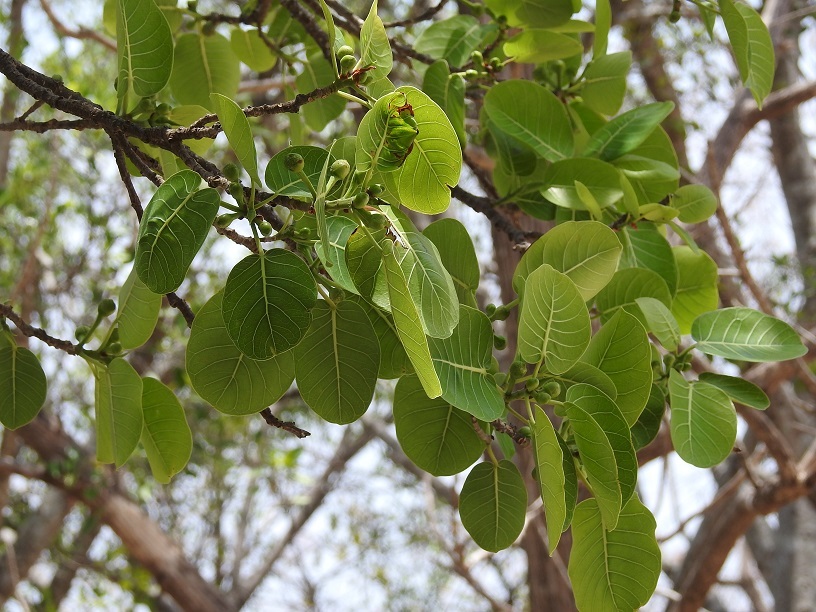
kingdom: Plantae
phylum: Tracheophyta
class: Magnoliopsida
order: Rosales
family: Moraceae
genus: Ficus
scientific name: Ficus aurea
